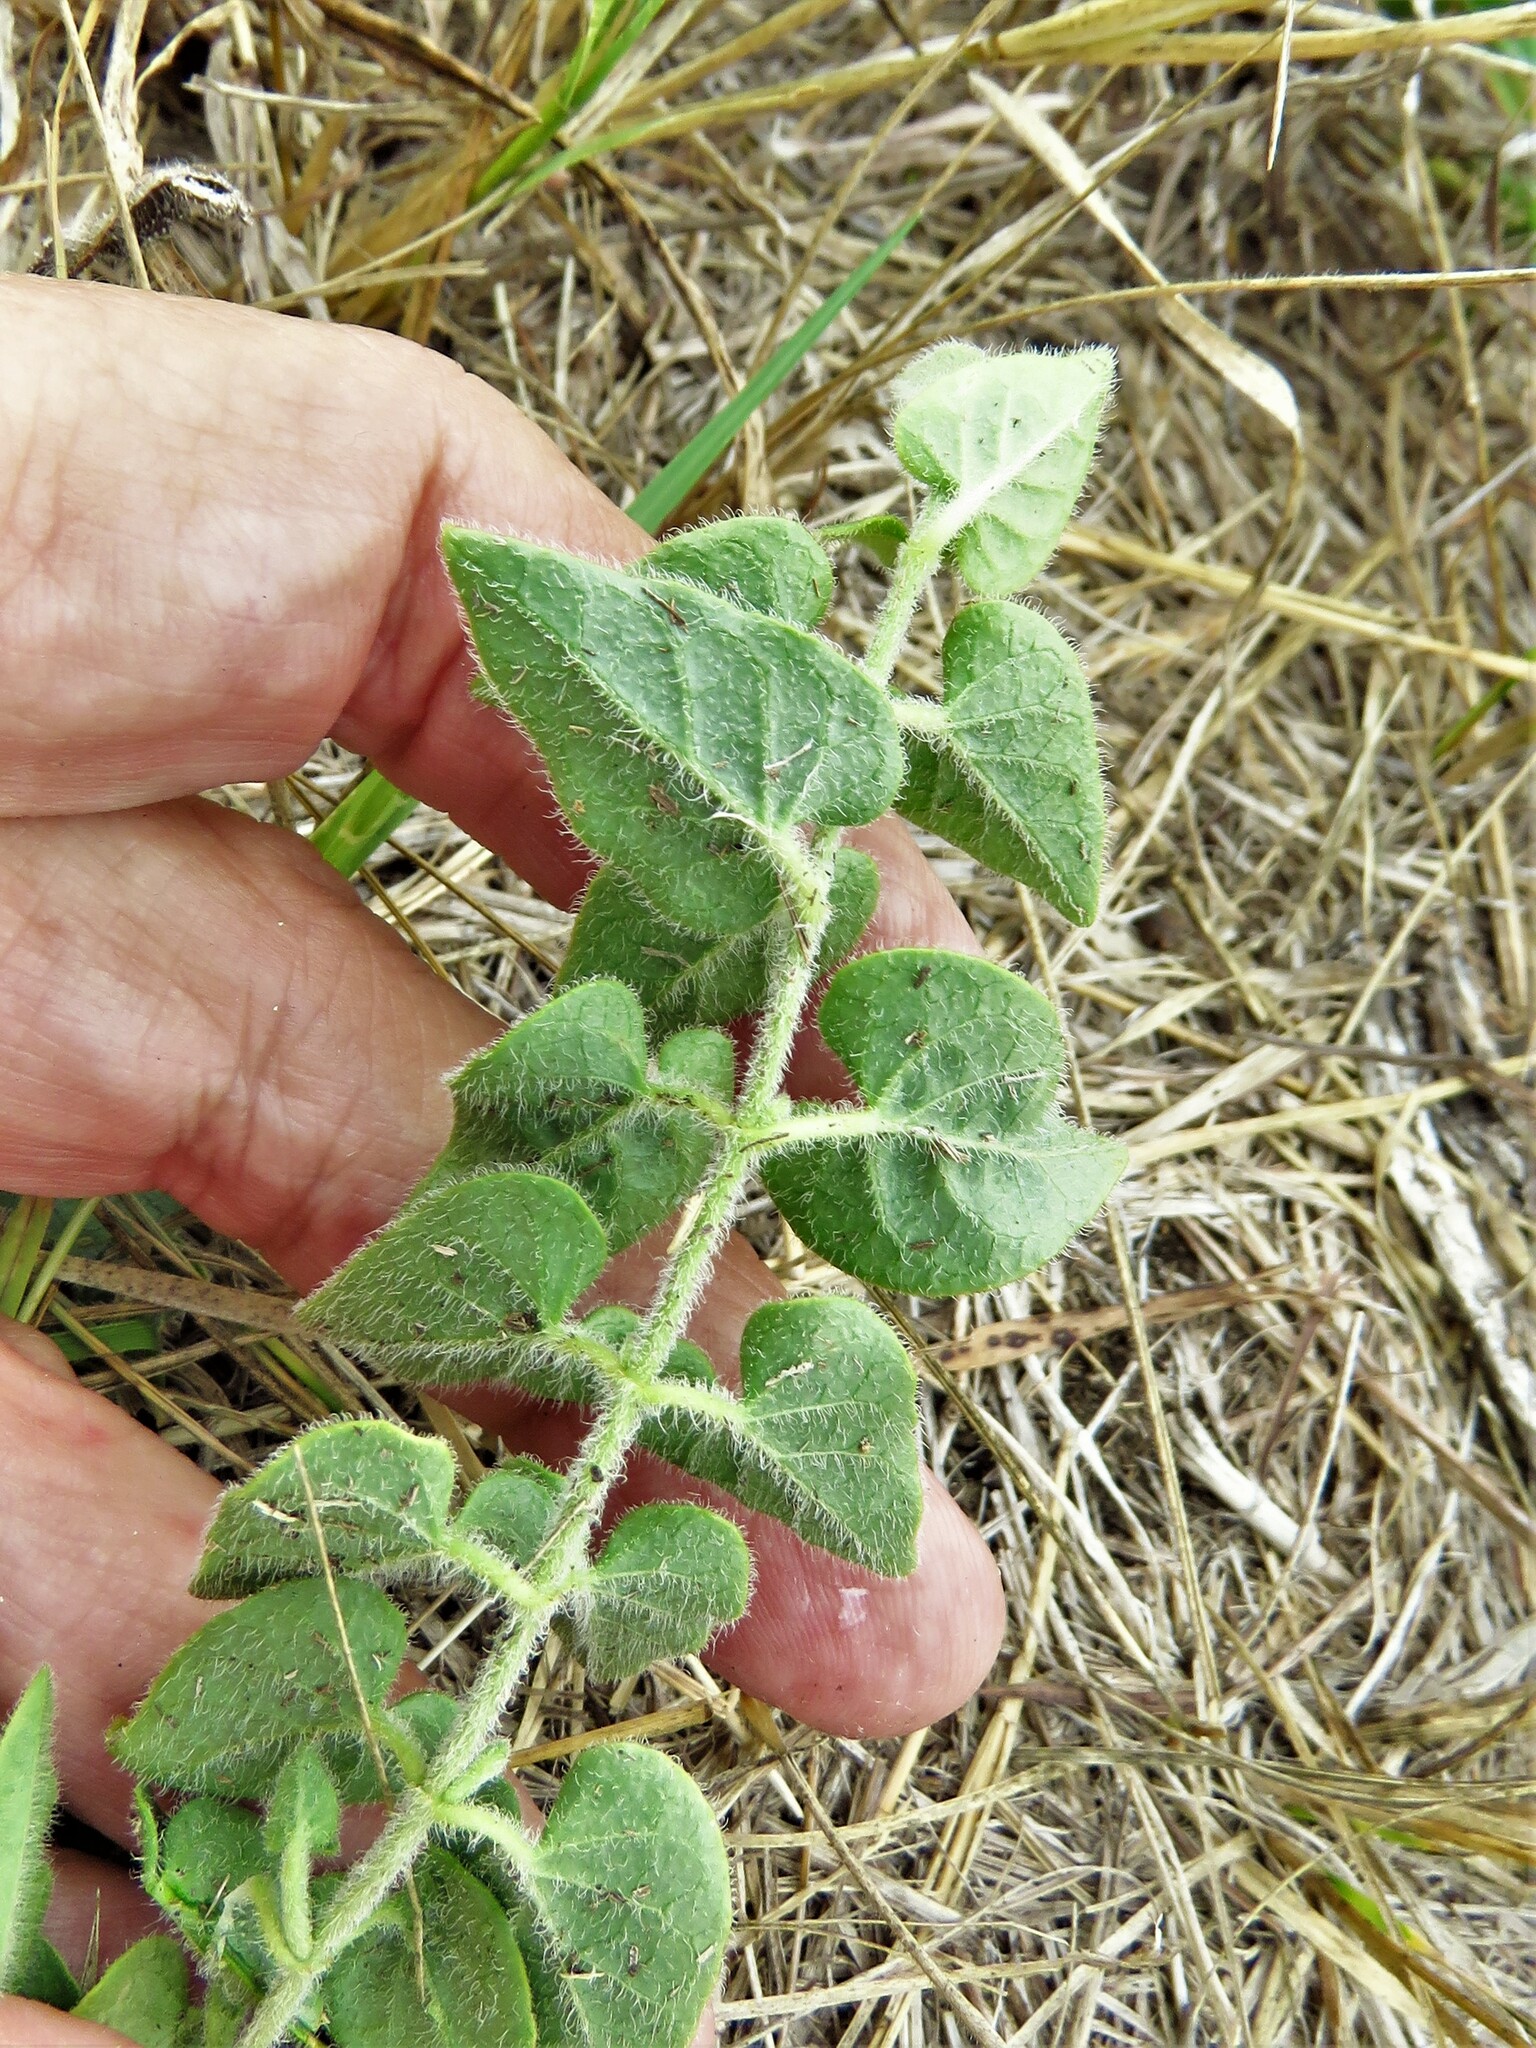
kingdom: Plantae
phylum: Tracheophyta
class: Magnoliopsida
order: Gentianales
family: Apocynaceae
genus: Chthamalia
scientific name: Chthamalia biflora
